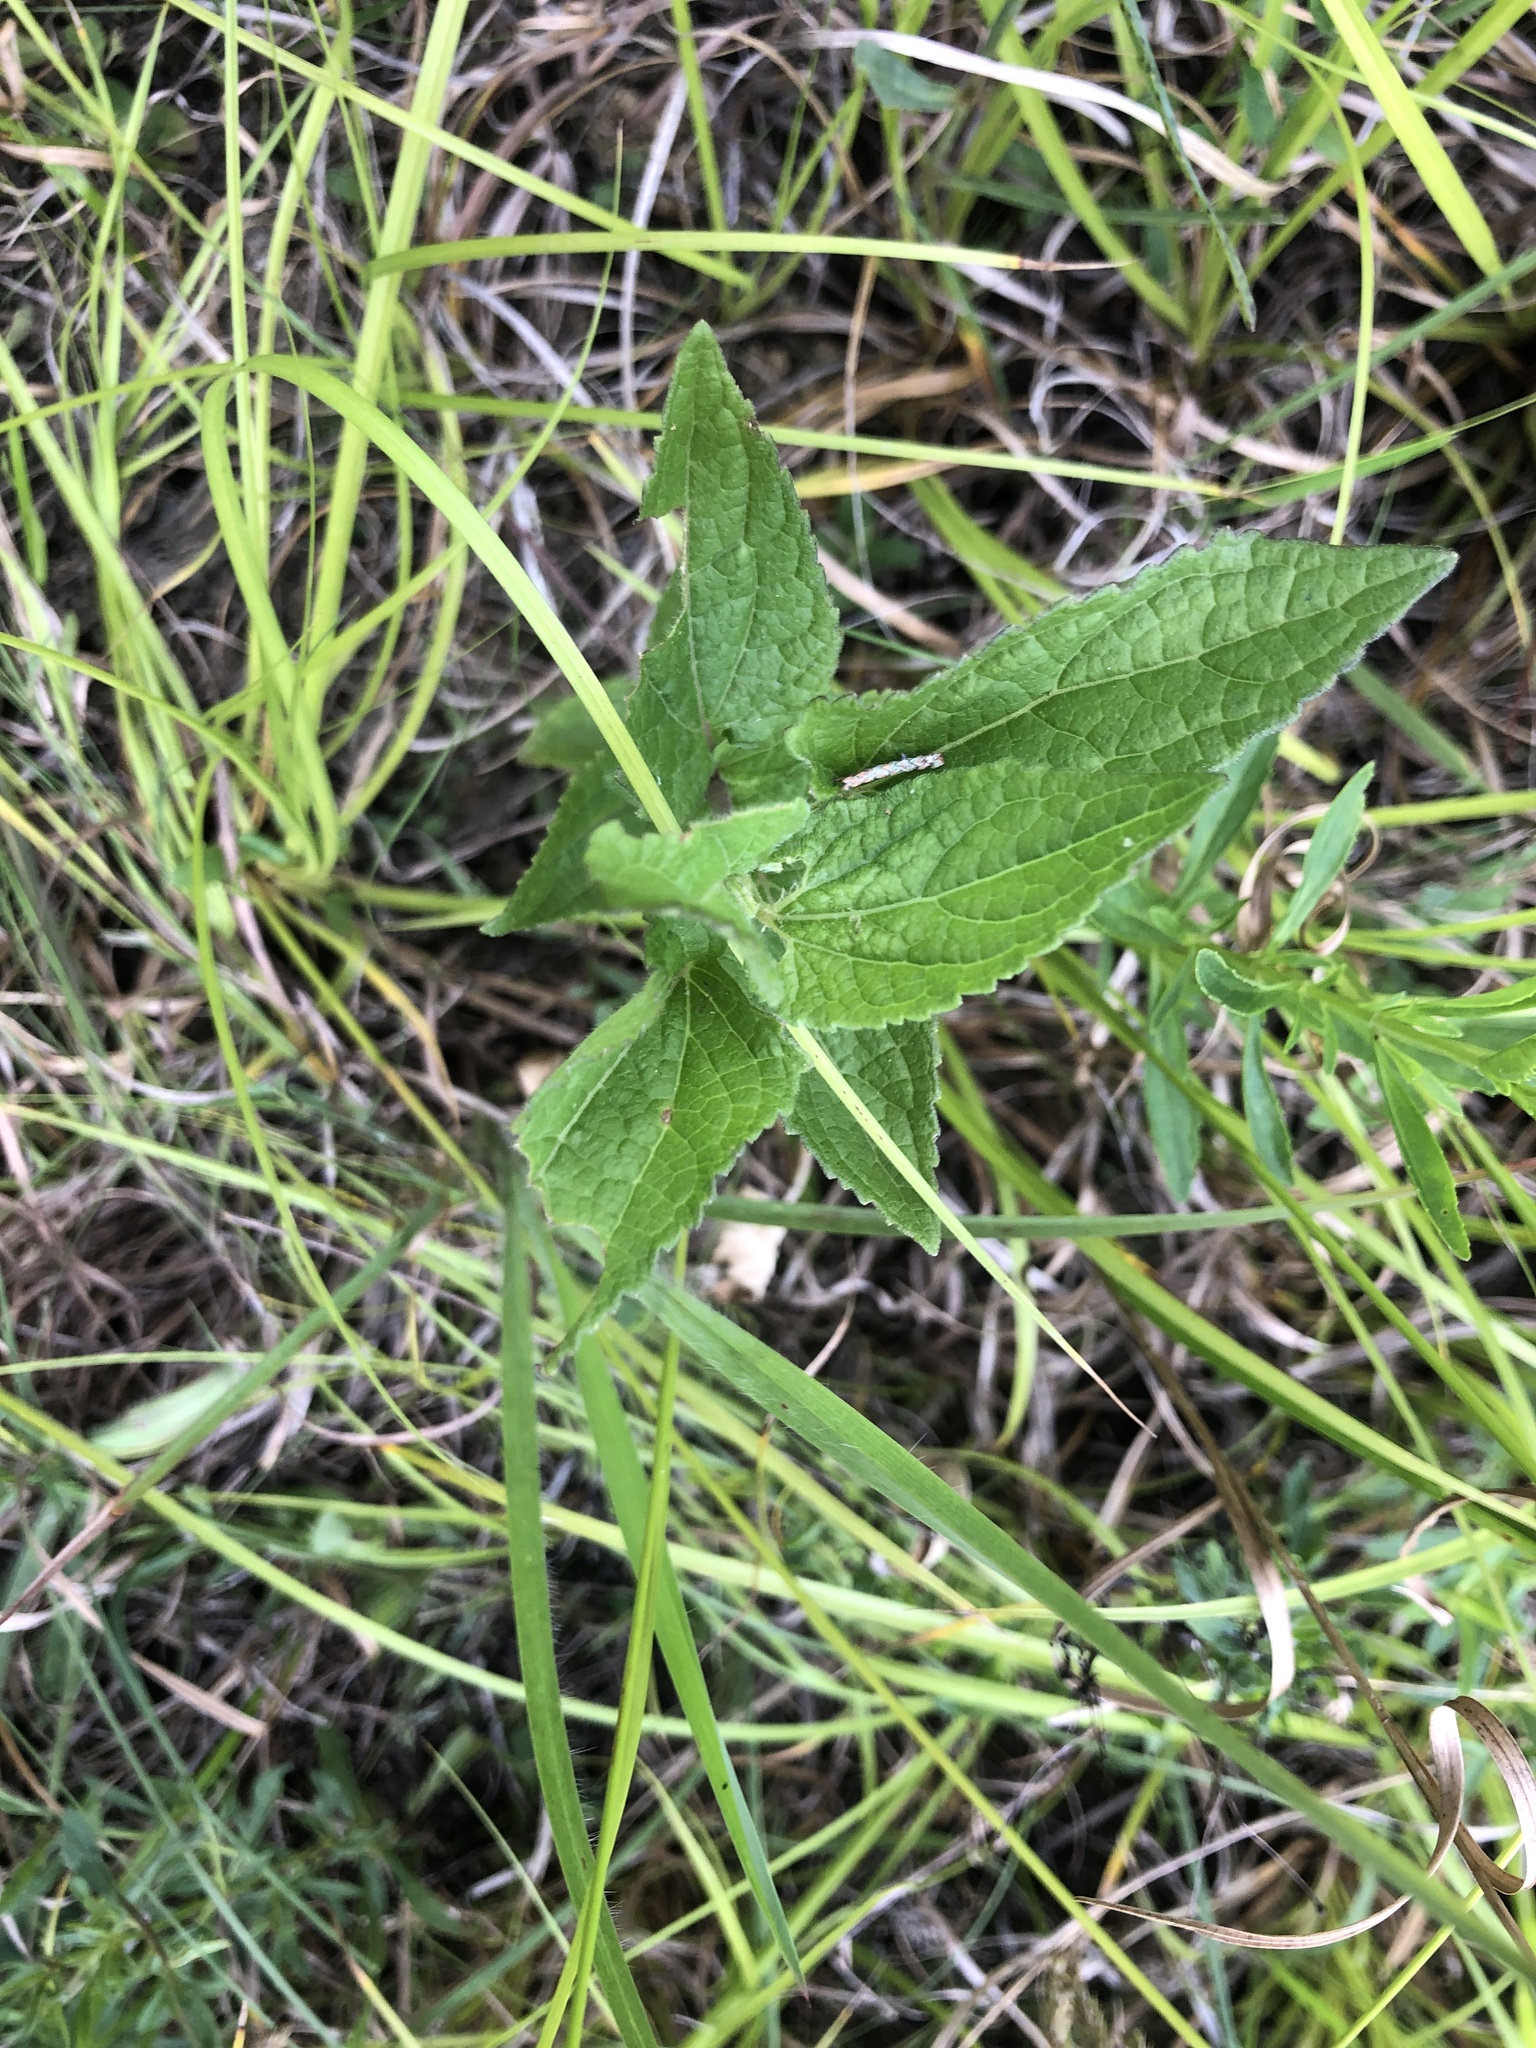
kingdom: Plantae
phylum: Tracheophyta
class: Magnoliopsida
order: Asterales
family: Asteraceae
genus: Conoclinium
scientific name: Conoclinium coelestinum
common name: Blue mistflower
